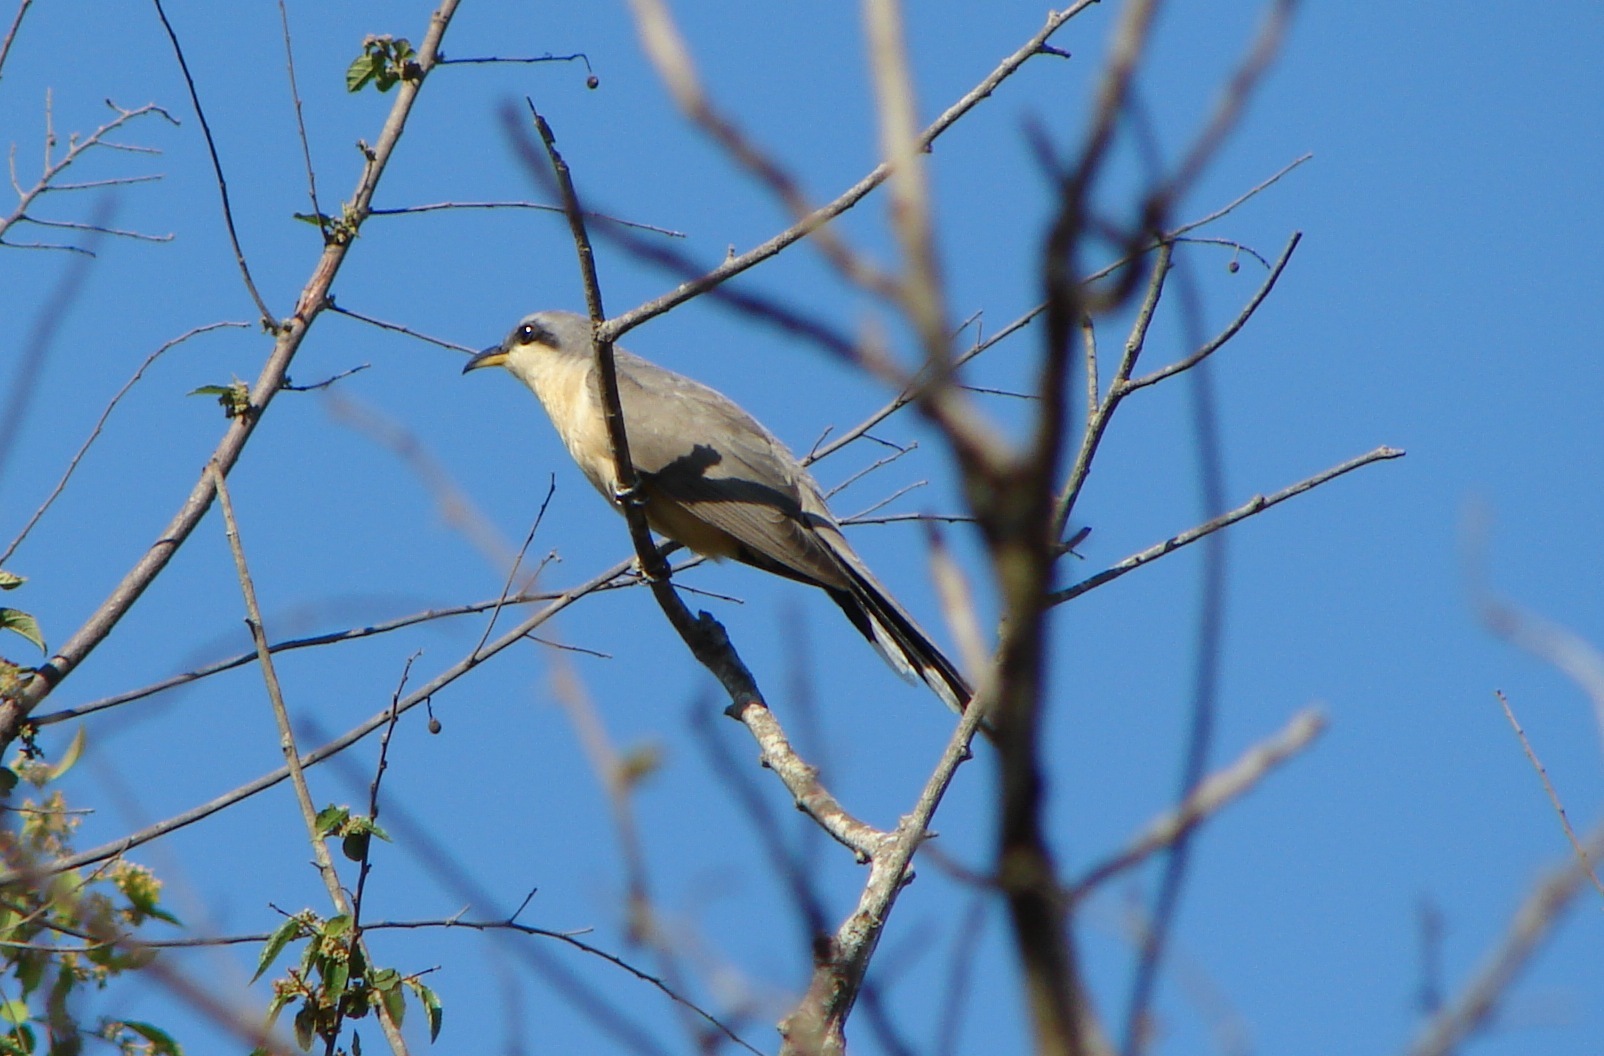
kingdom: Animalia
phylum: Chordata
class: Aves
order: Cuculiformes
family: Cuculidae
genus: Coccyzus
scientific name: Coccyzus minor
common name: Mangrove cuckoo
